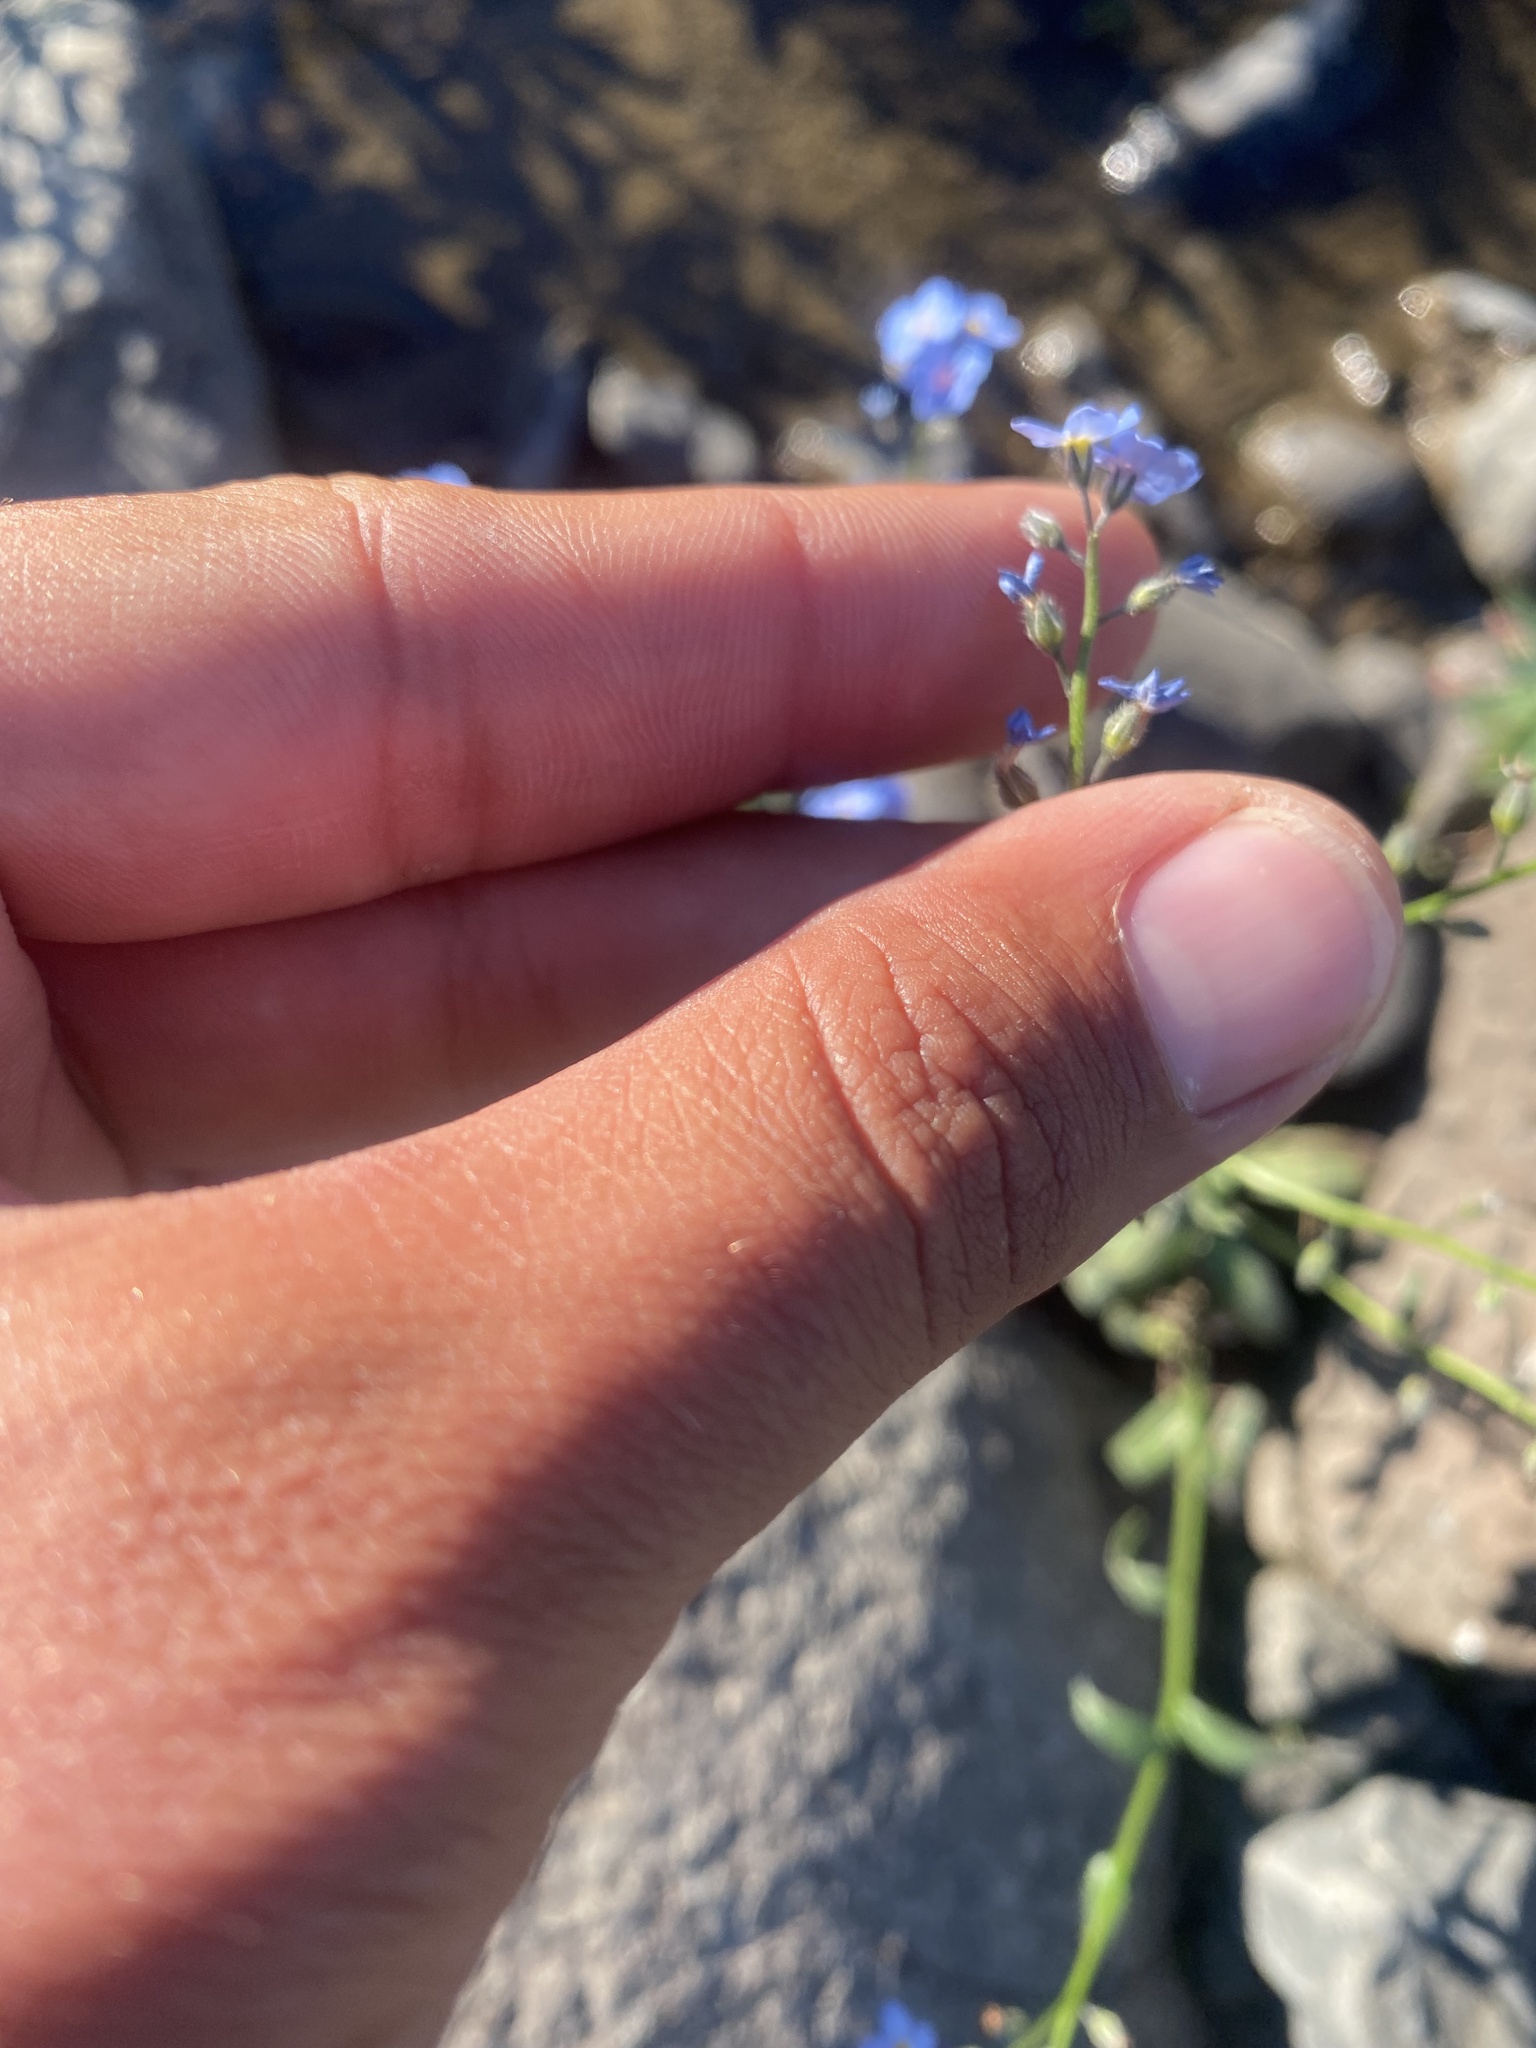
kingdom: Plantae
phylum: Tracheophyta
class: Magnoliopsida
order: Boraginales
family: Boraginaceae
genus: Myosotis
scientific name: Myosotis asiatica
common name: Asian forget-me-not
